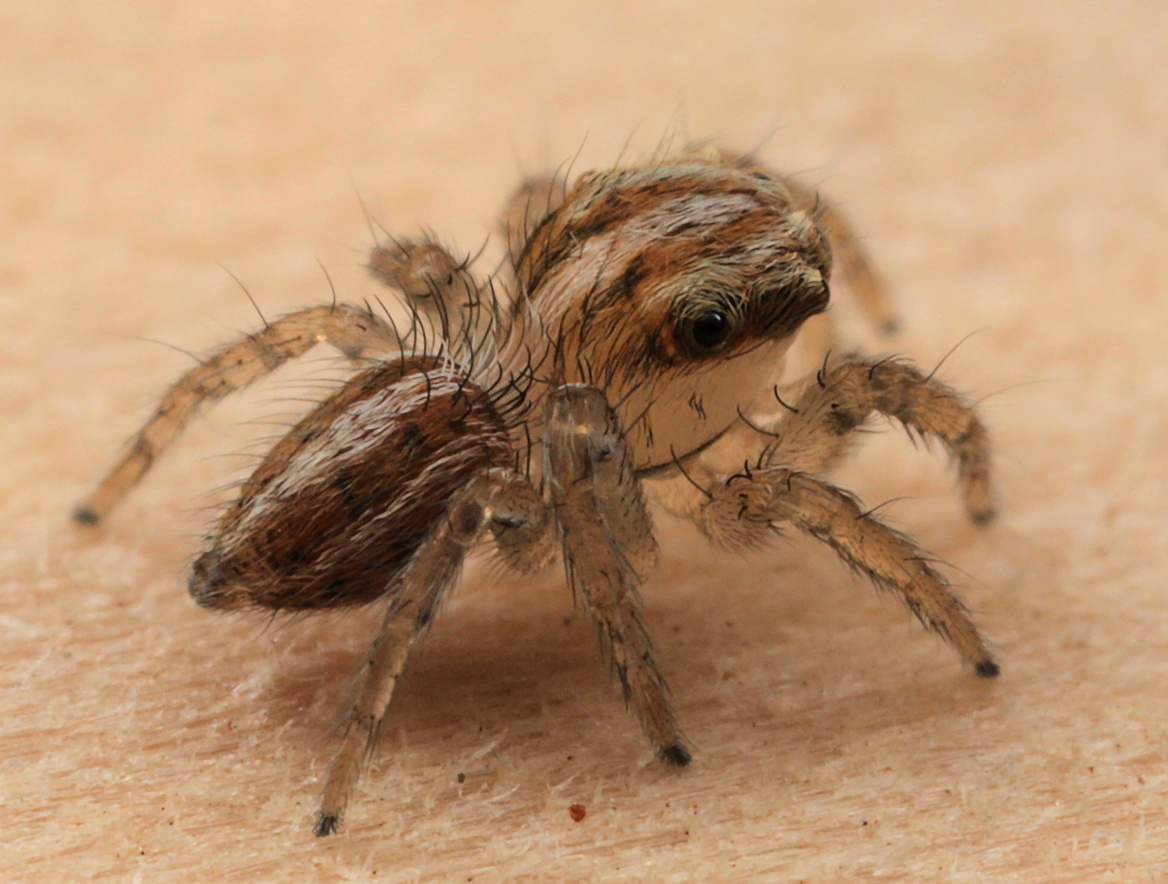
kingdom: Animalia
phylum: Arthropoda
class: Arachnida
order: Araneae
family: Salticidae
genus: Evarcha
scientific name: Evarcha flagellaris
